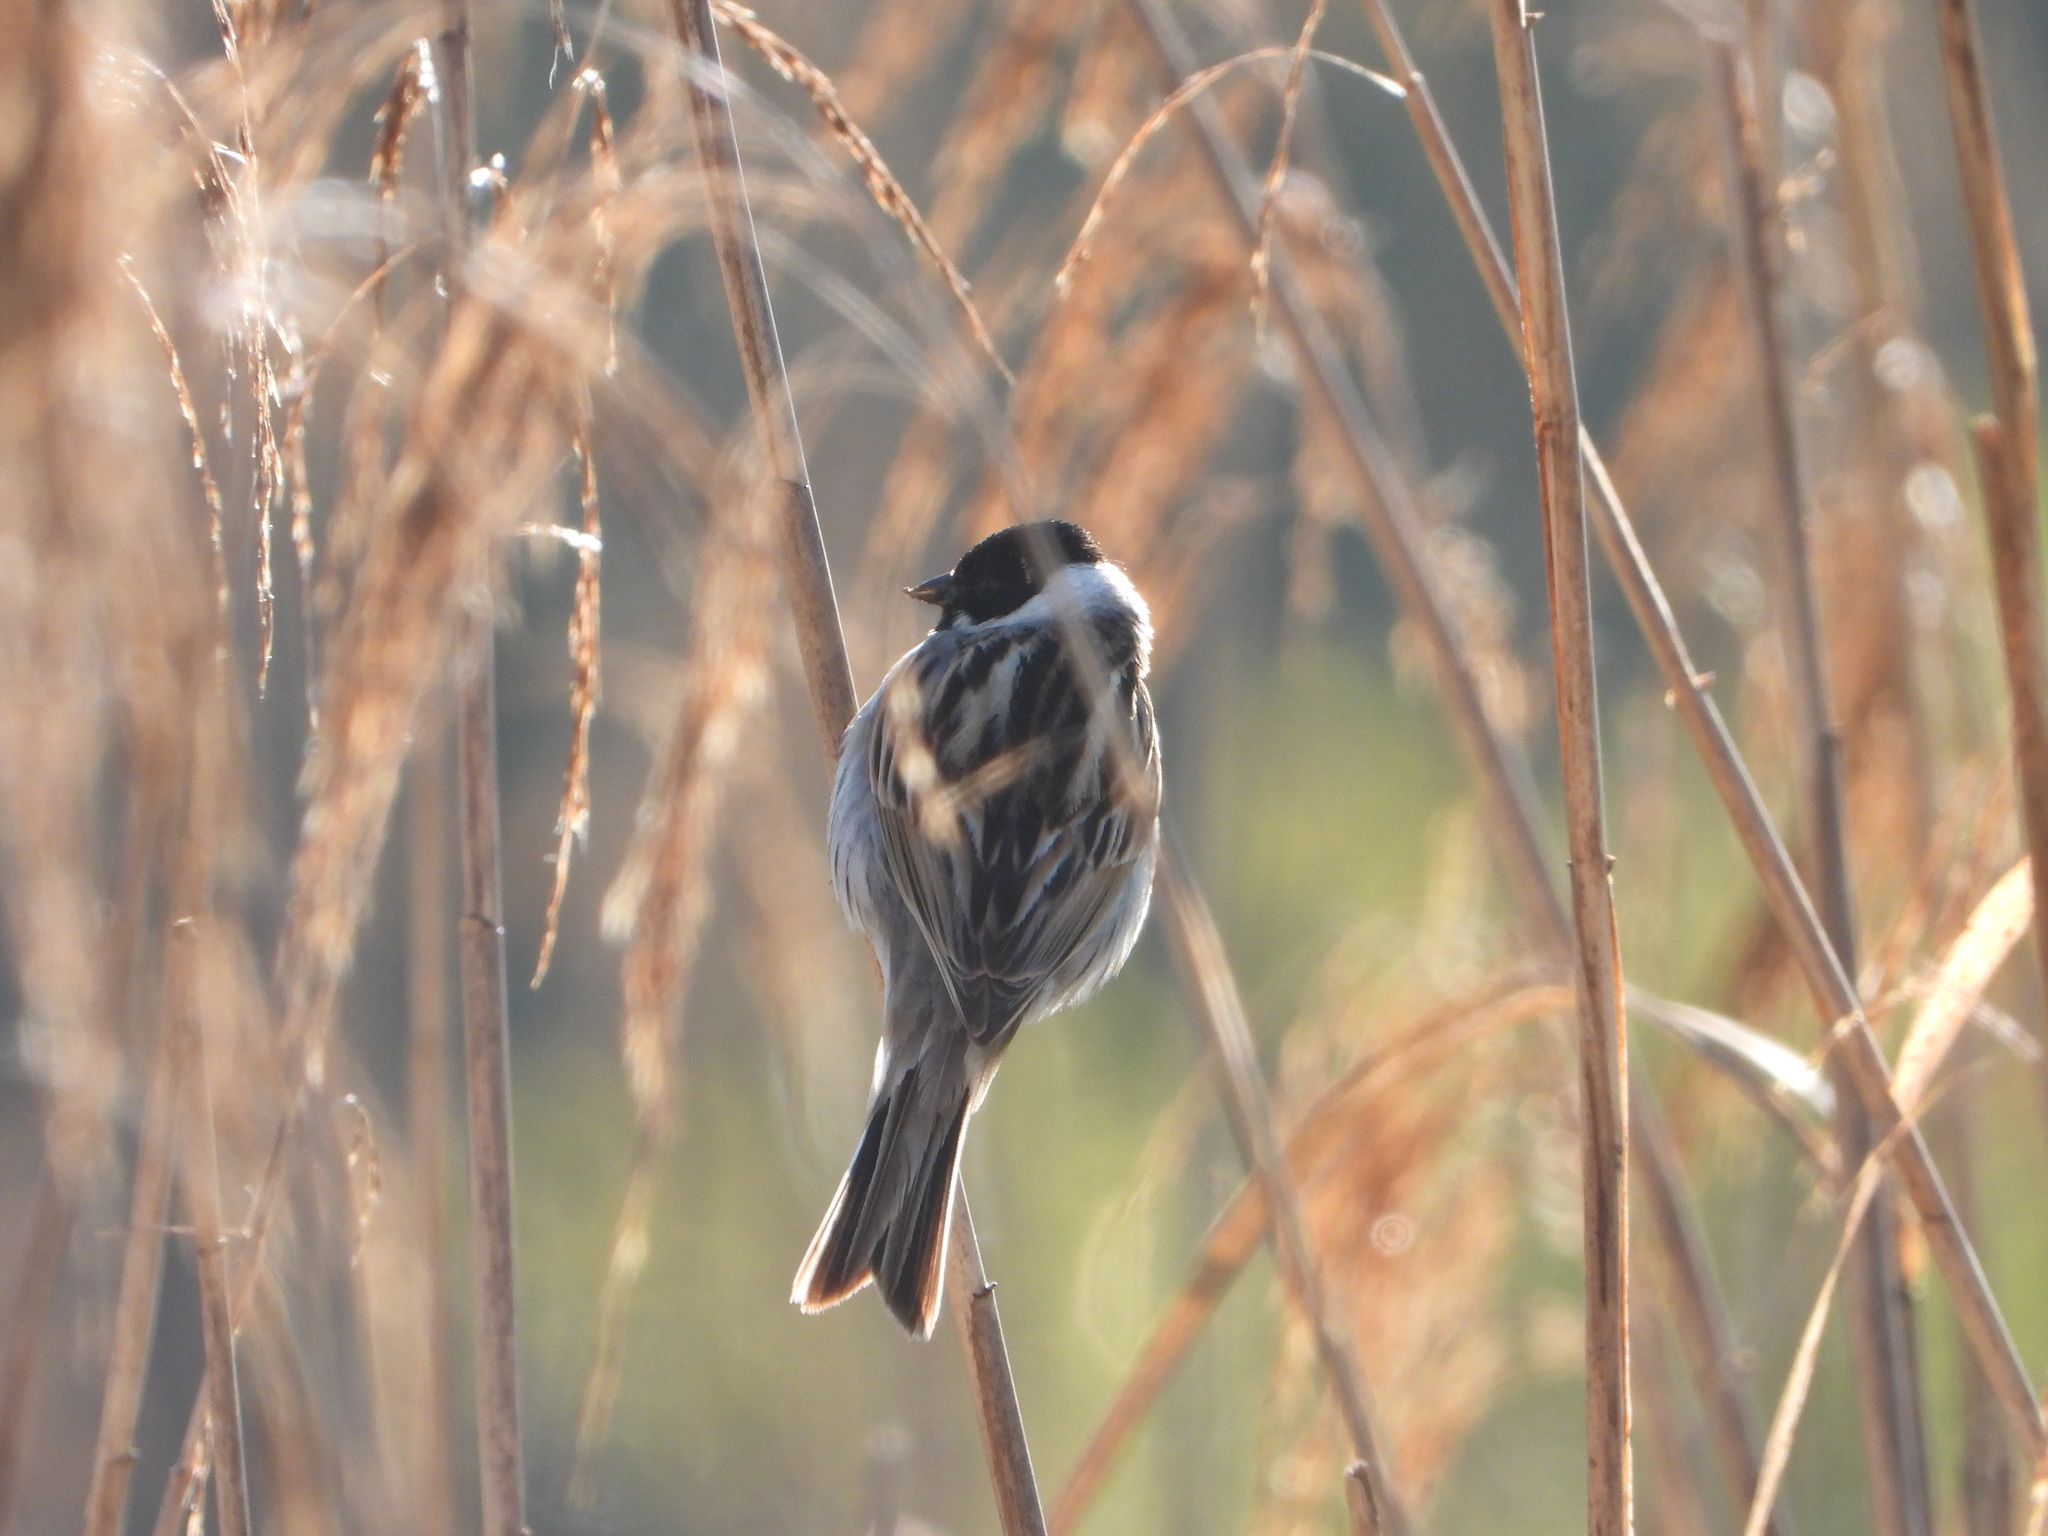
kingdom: Animalia
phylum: Chordata
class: Aves
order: Passeriformes
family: Emberizidae
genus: Emberiza
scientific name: Emberiza schoeniclus
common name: Reed bunting
